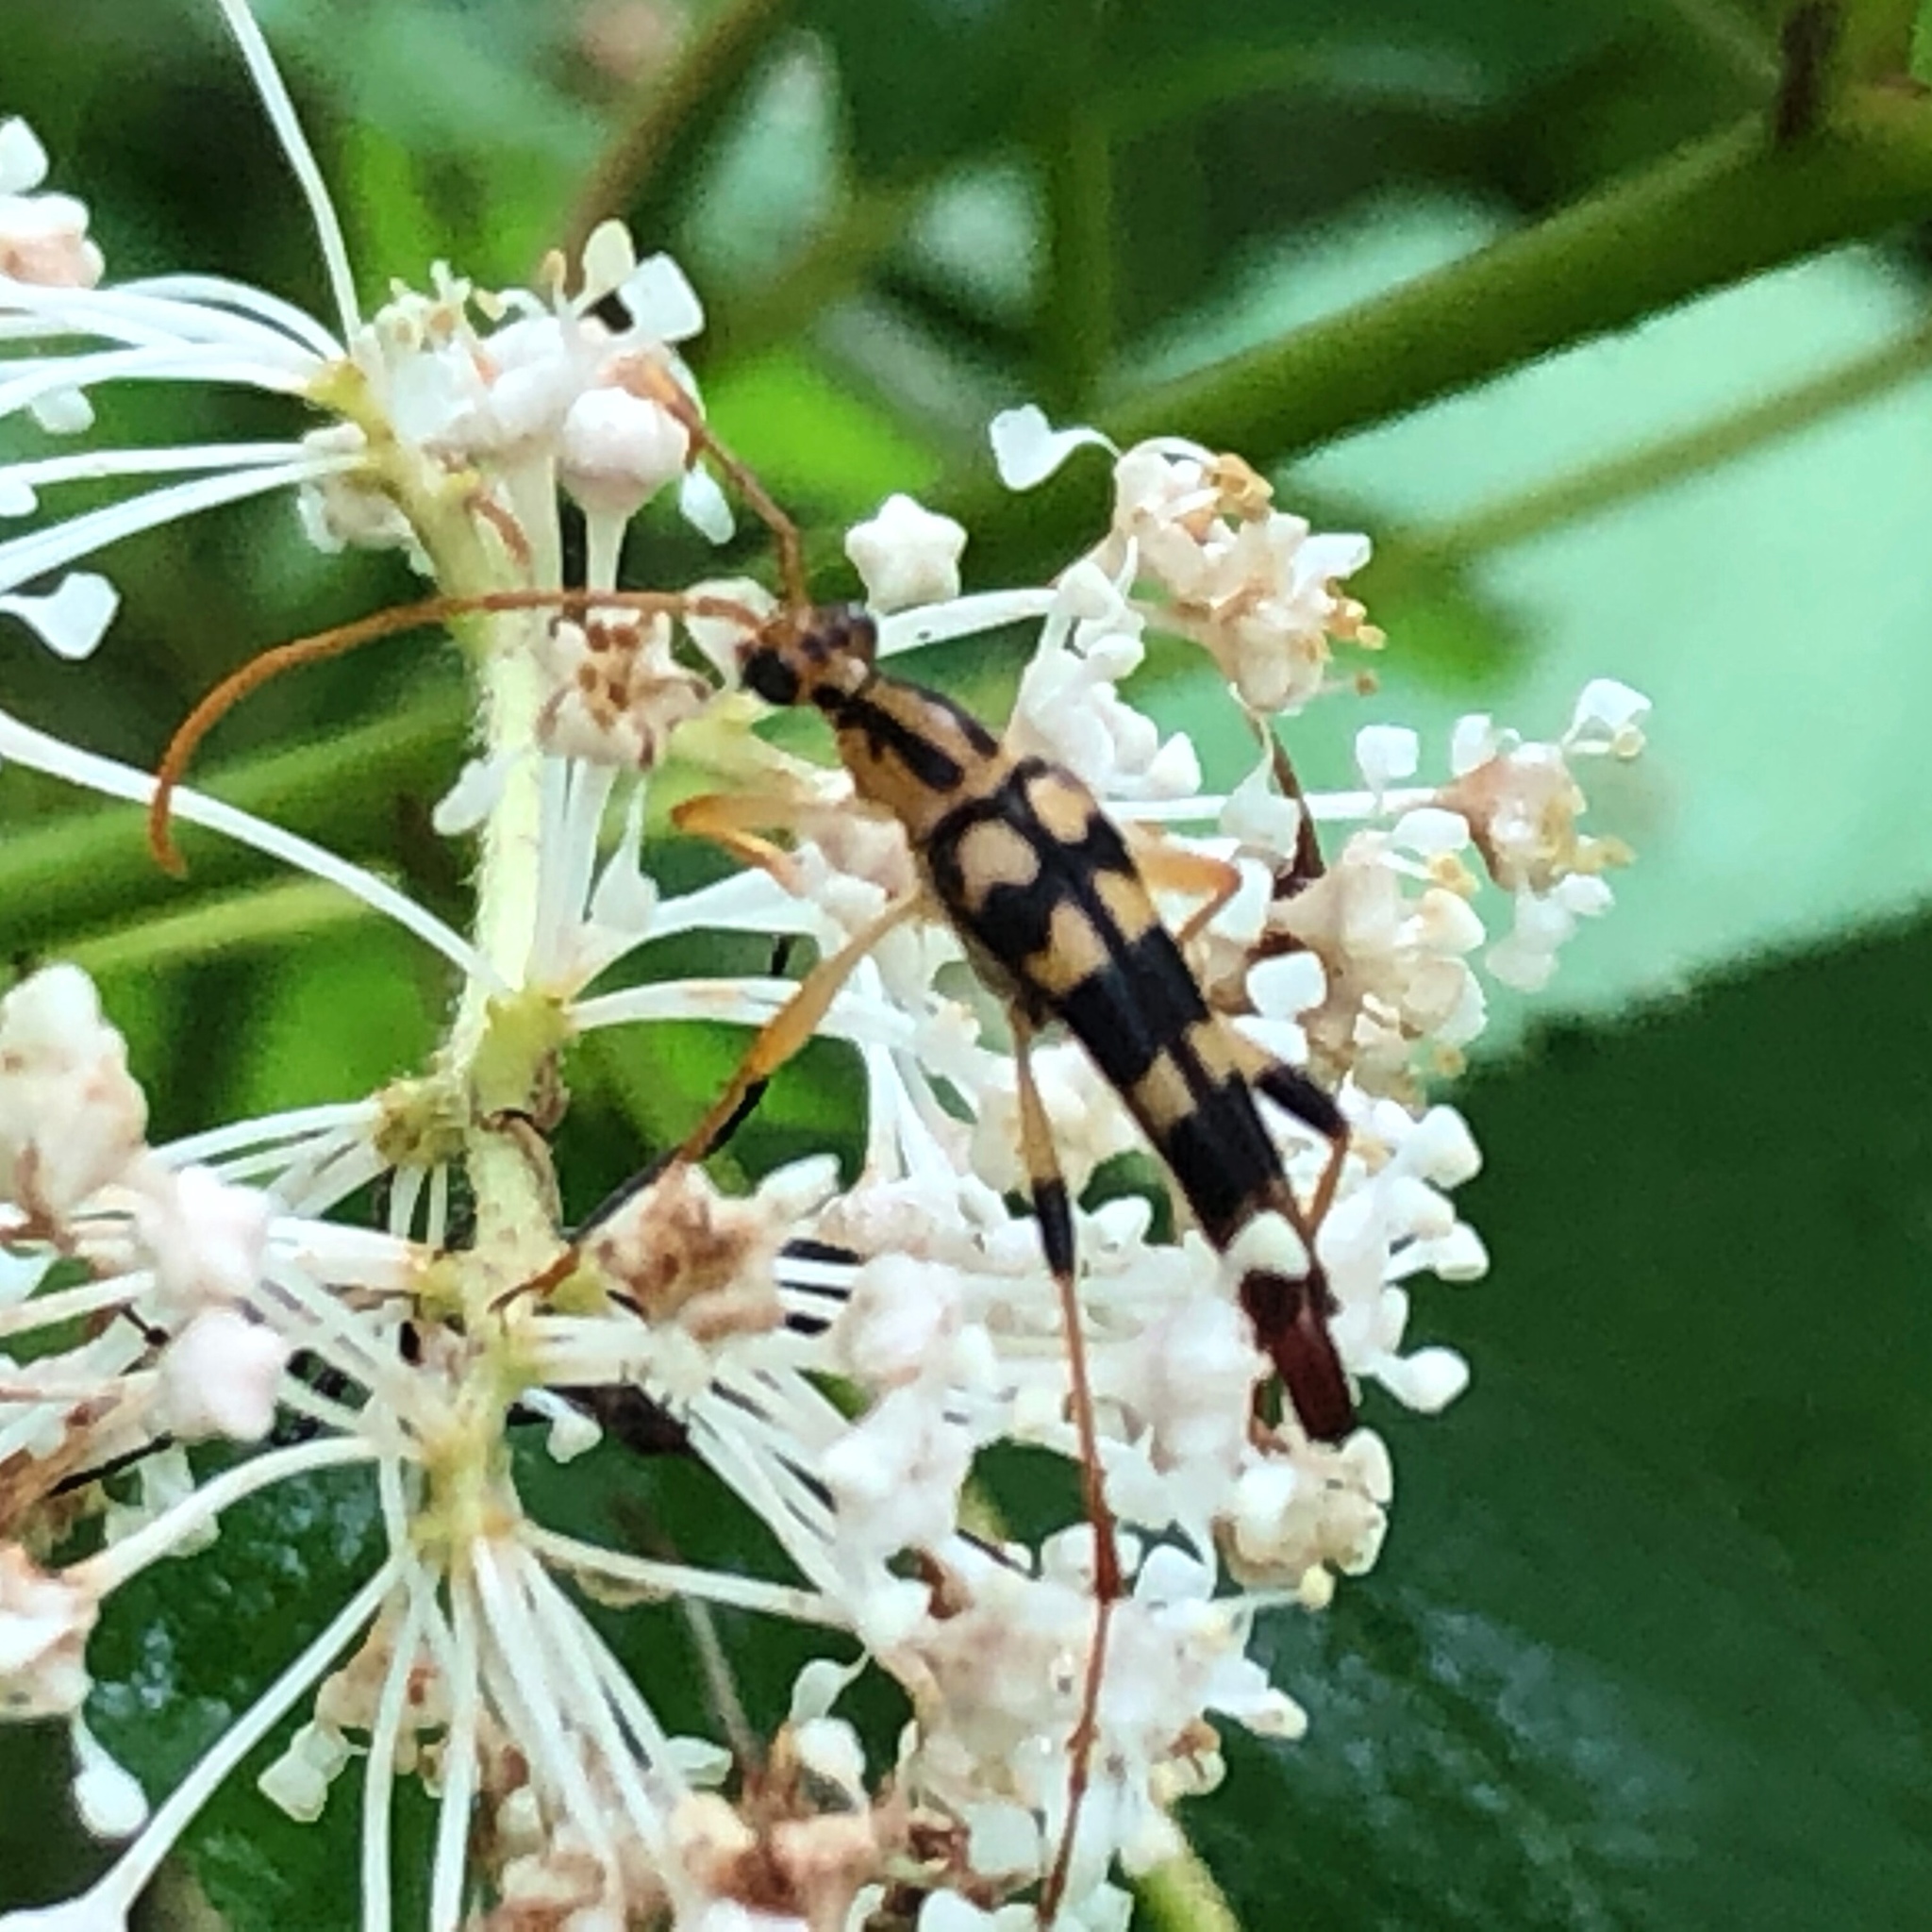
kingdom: Animalia
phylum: Arthropoda
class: Insecta
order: Coleoptera
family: Cerambycidae
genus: Strangalia
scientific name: Strangalia luteicornis
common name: Yellow-horned flower longhorn beetle
